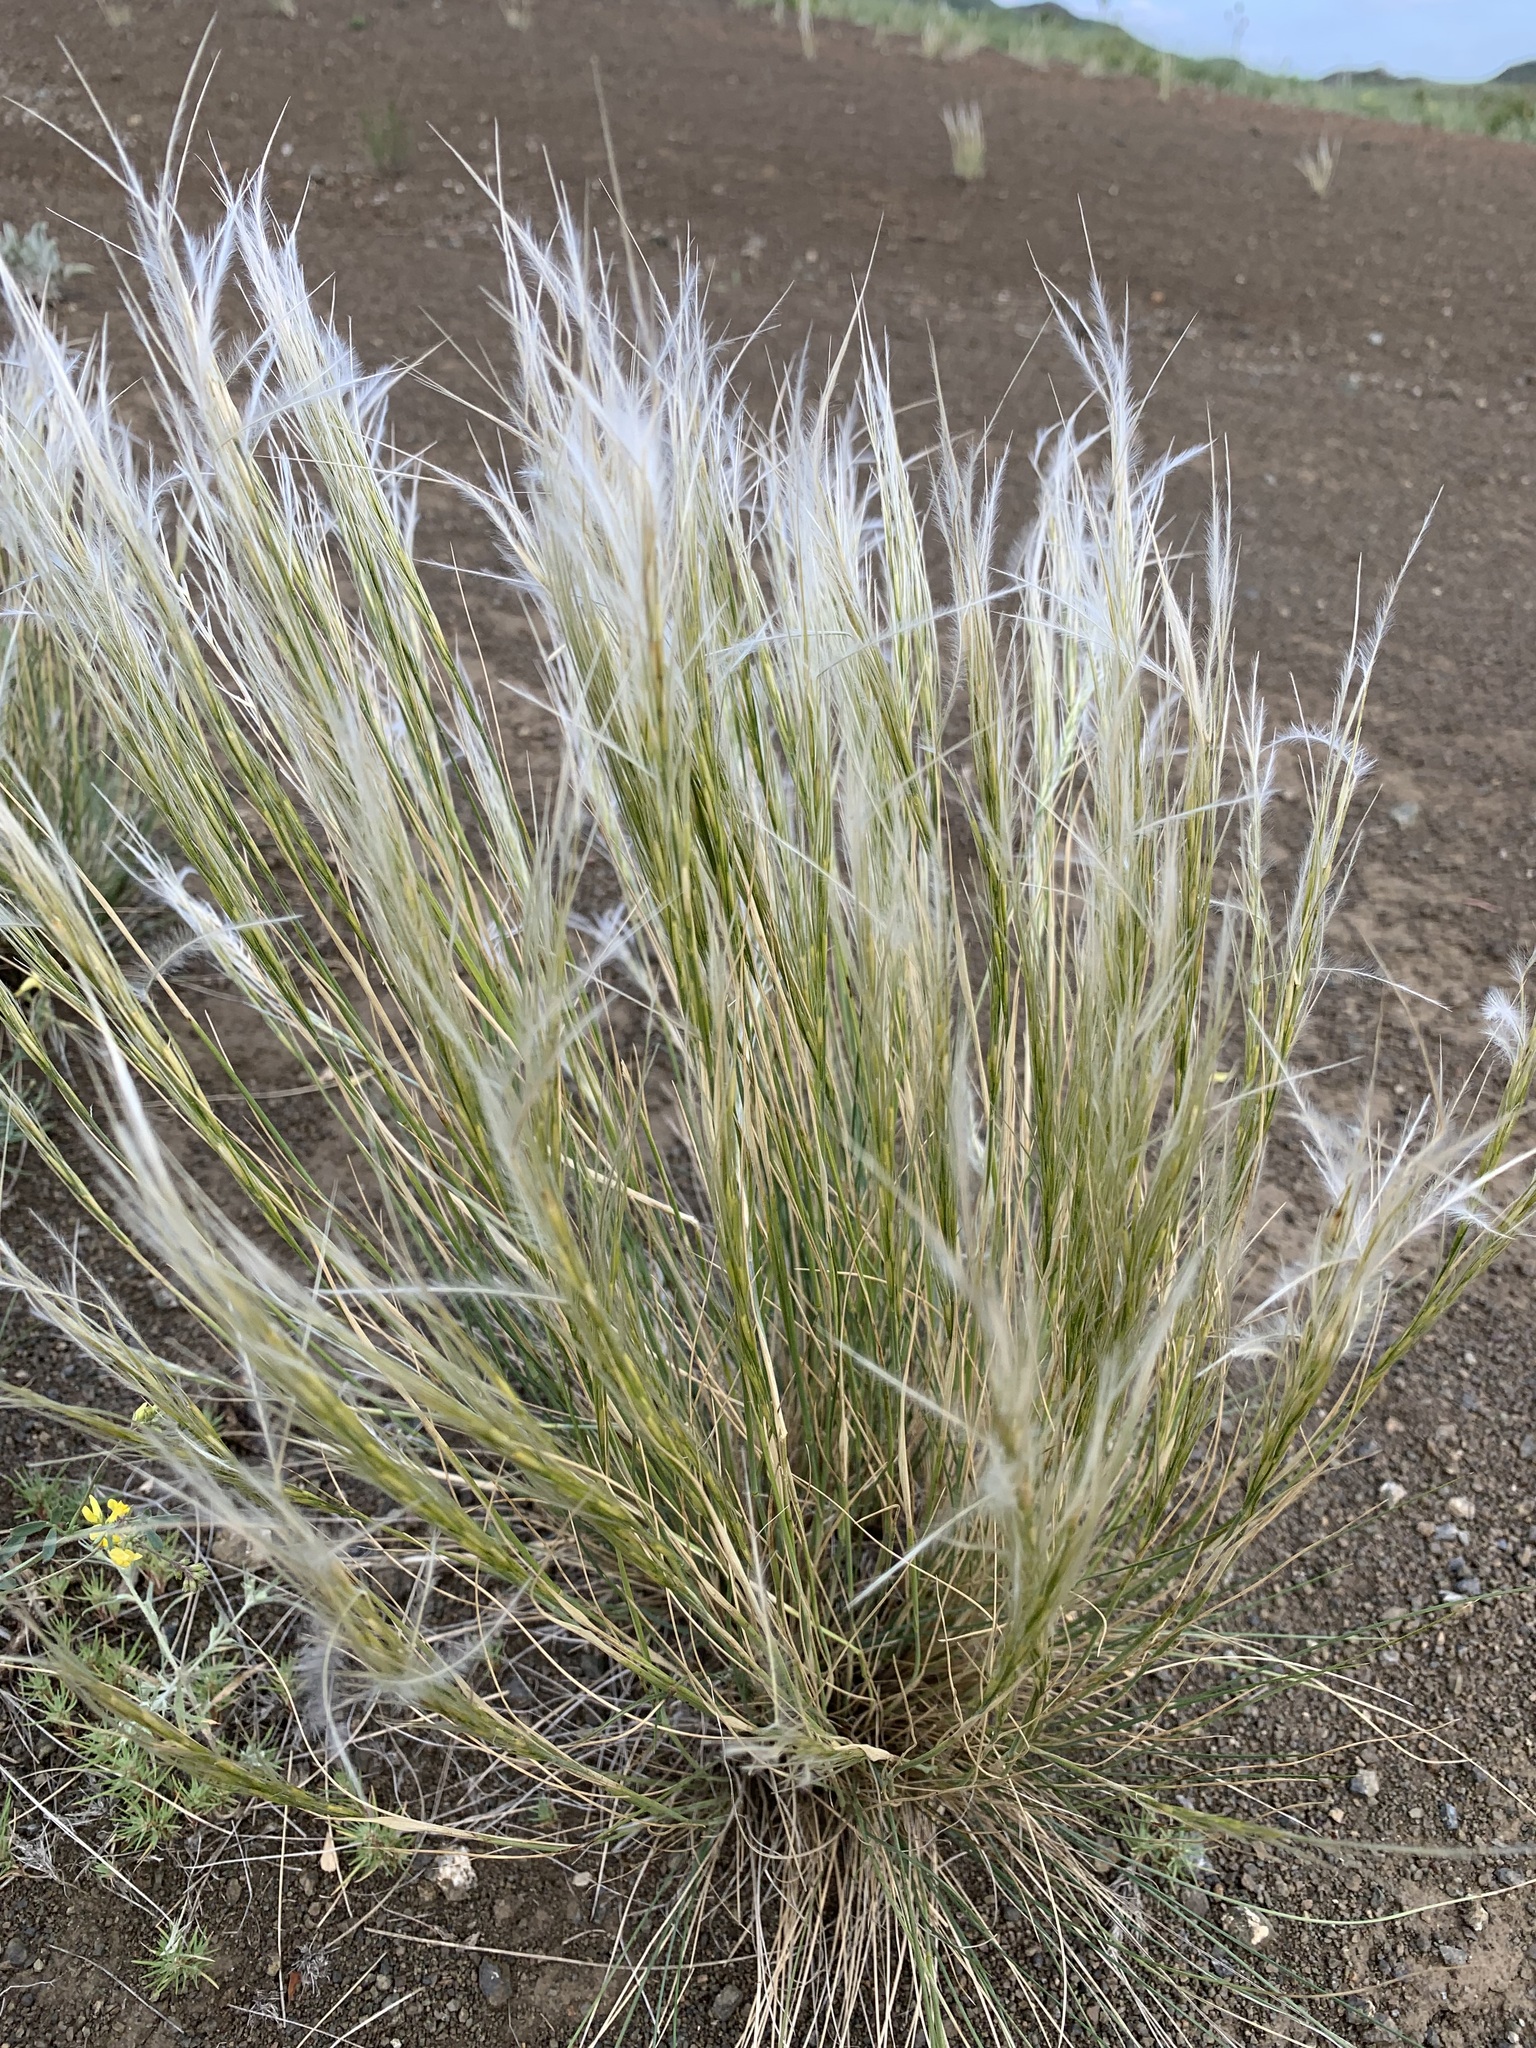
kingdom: Plantae
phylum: Tracheophyta
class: Liliopsida
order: Poales
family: Poaceae
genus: Stipa
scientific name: Stipa orientalis
